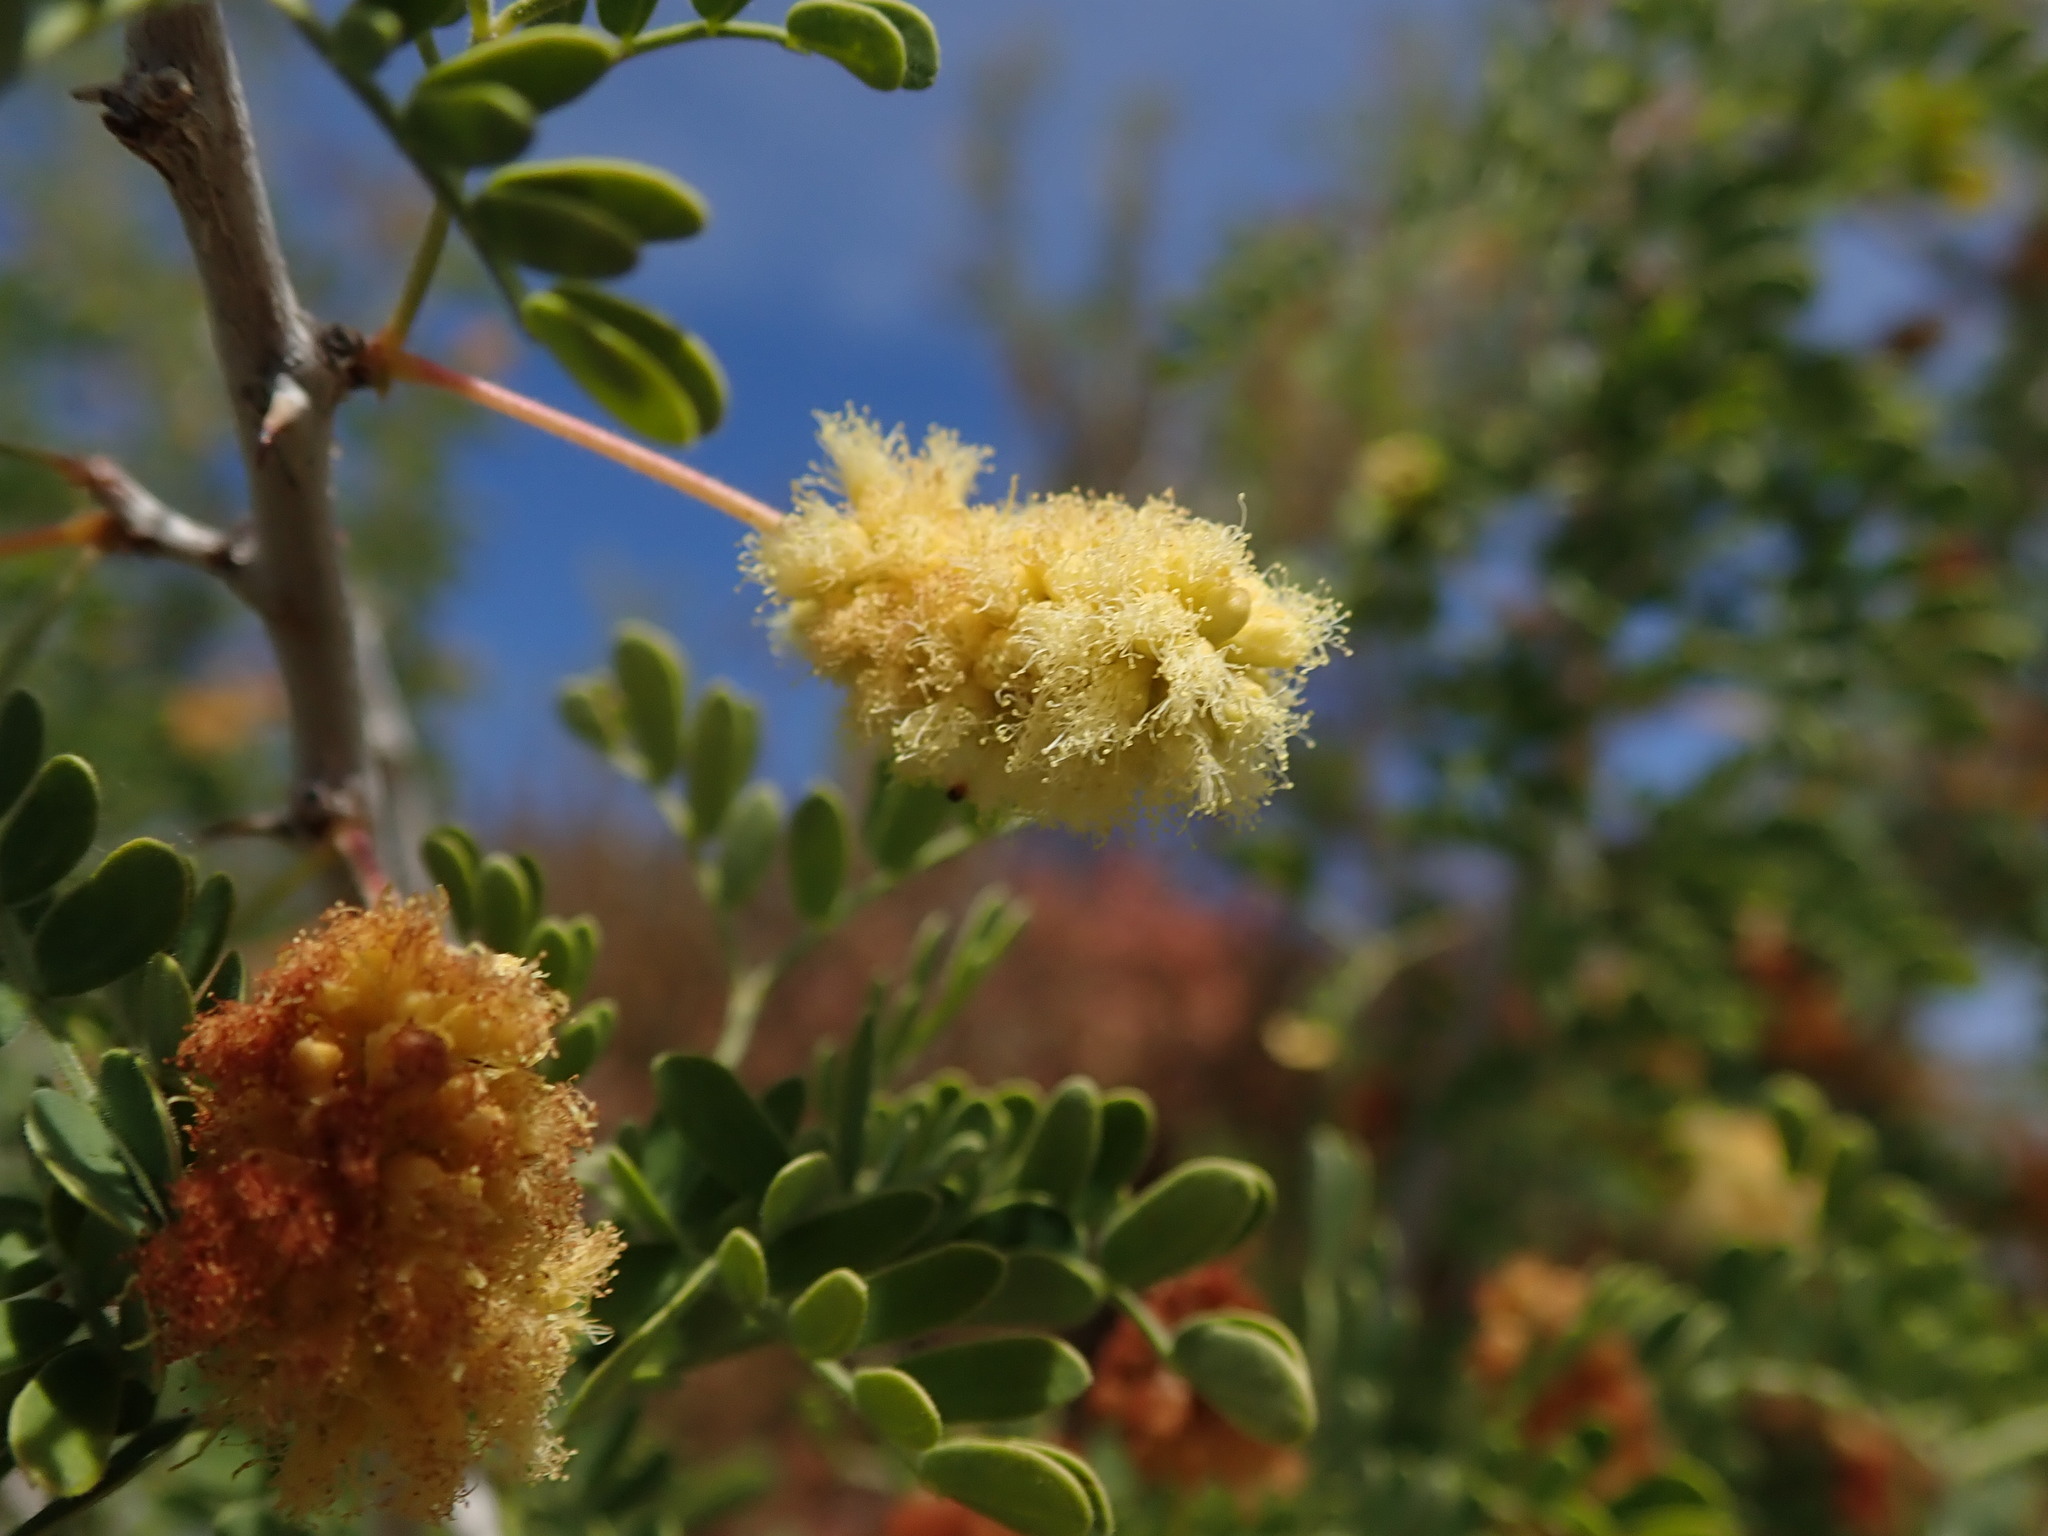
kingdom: Plantae
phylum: Tracheophyta
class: Magnoliopsida
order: Fabales
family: Fabaceae
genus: Senegalia
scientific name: Senegalia greggii
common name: Texas-mimosa
